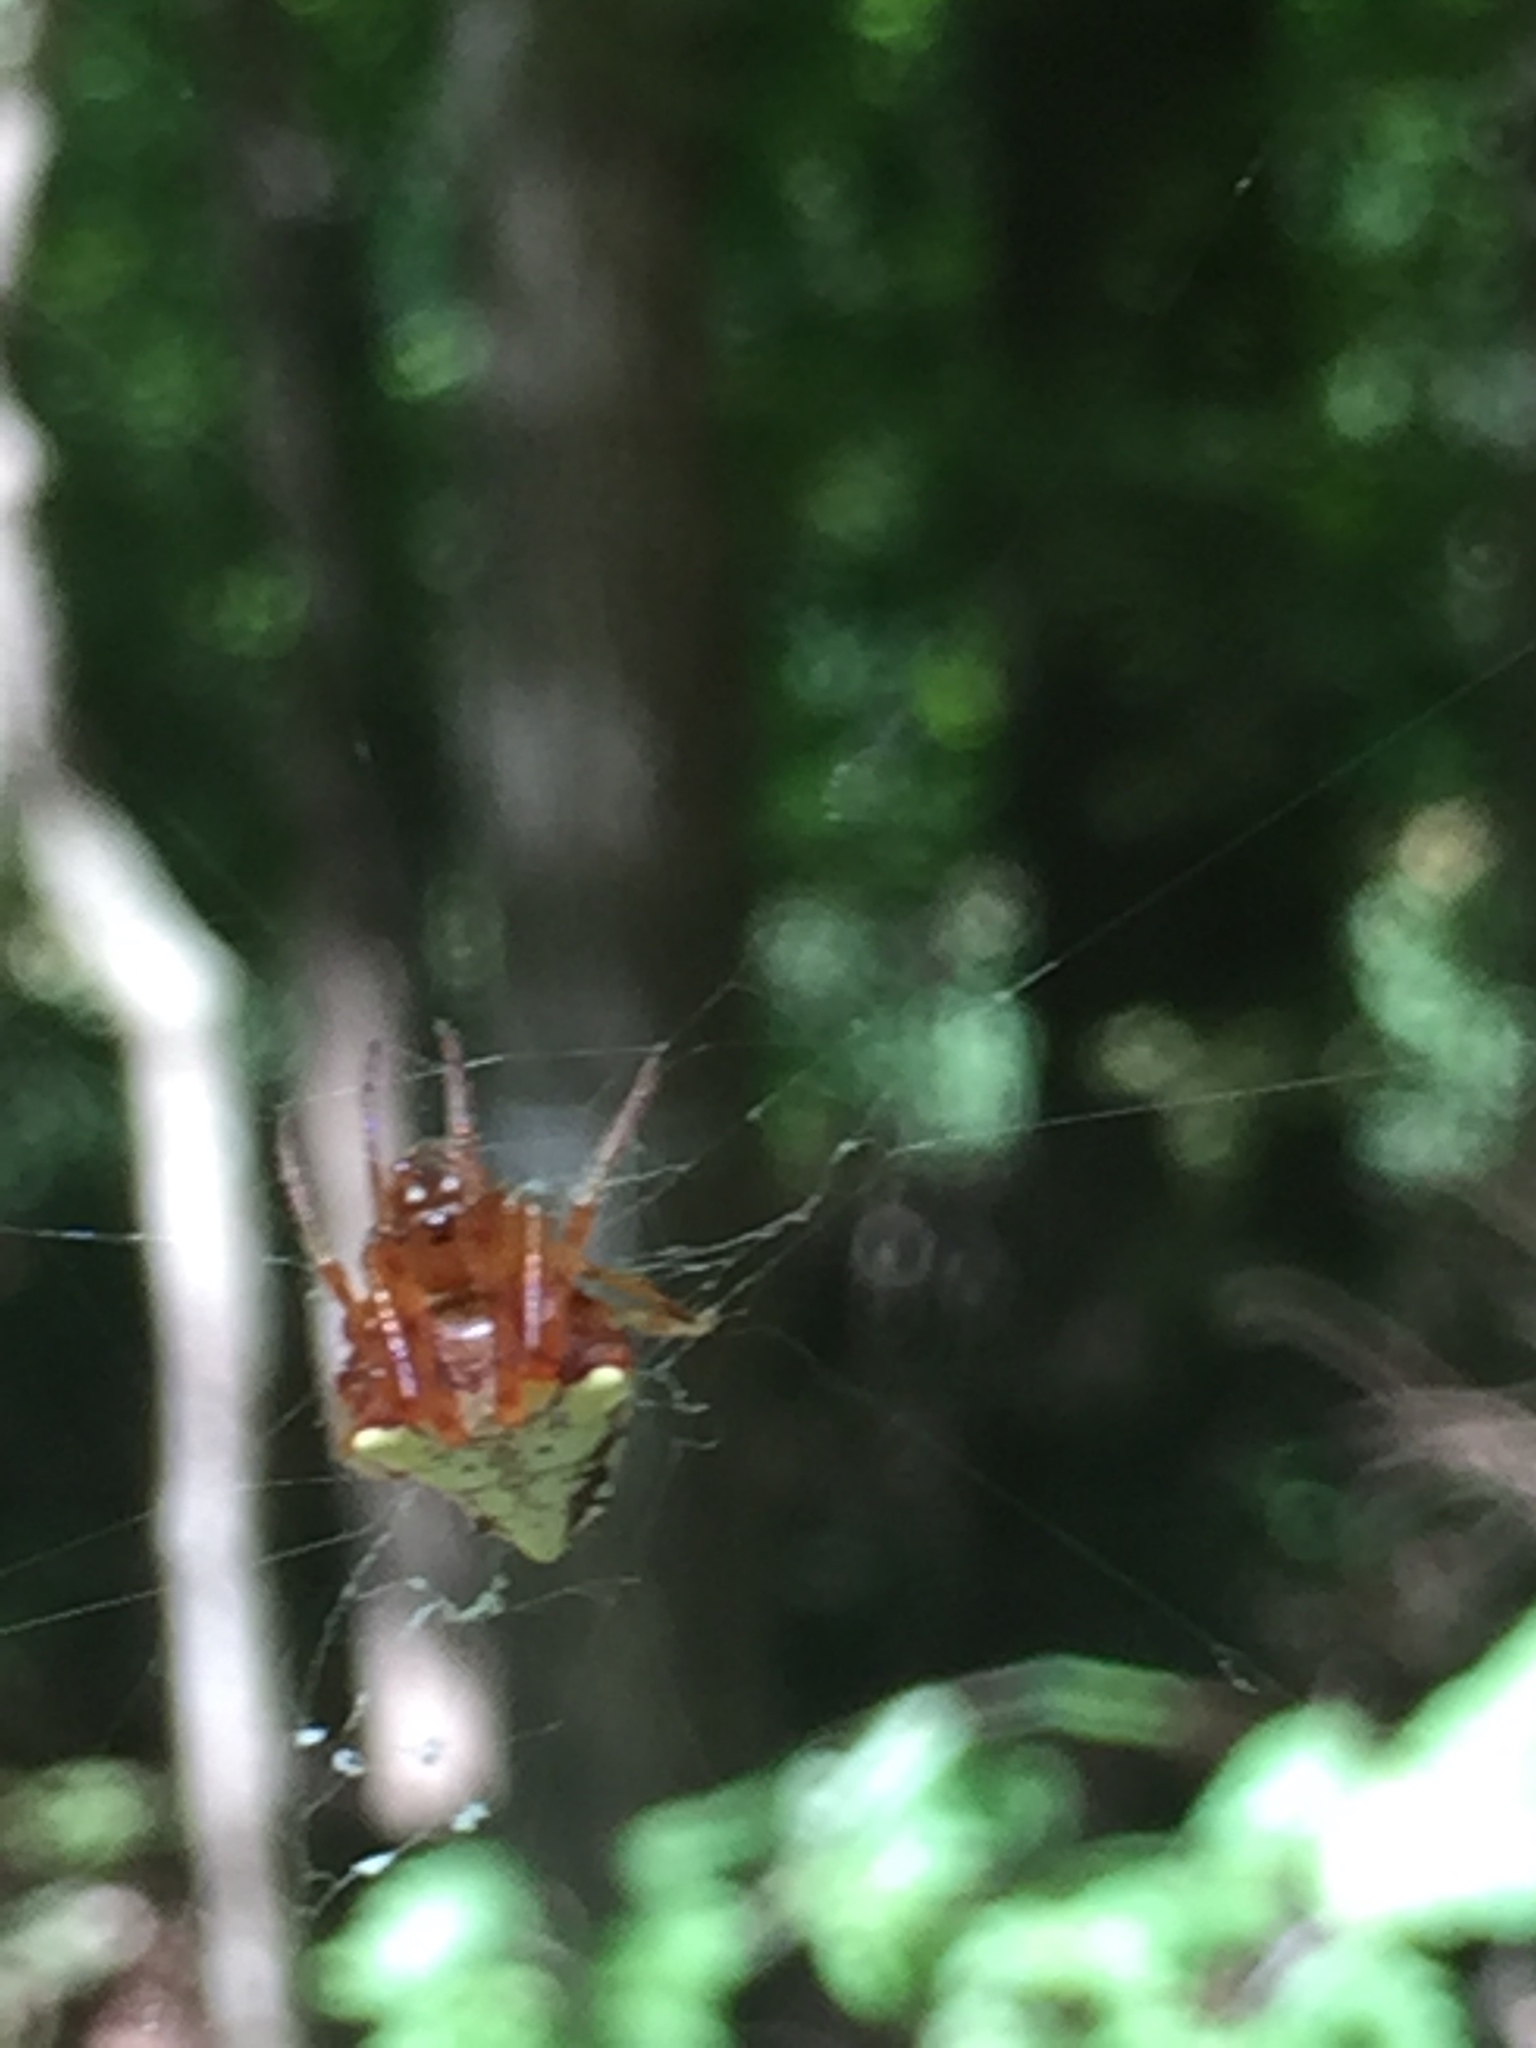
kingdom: Animalia
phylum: Arthropoda
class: Arachnida
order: Araneae
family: Araneidae
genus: Verrucosa
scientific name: Verrucosa arenata
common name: Orb weavers
